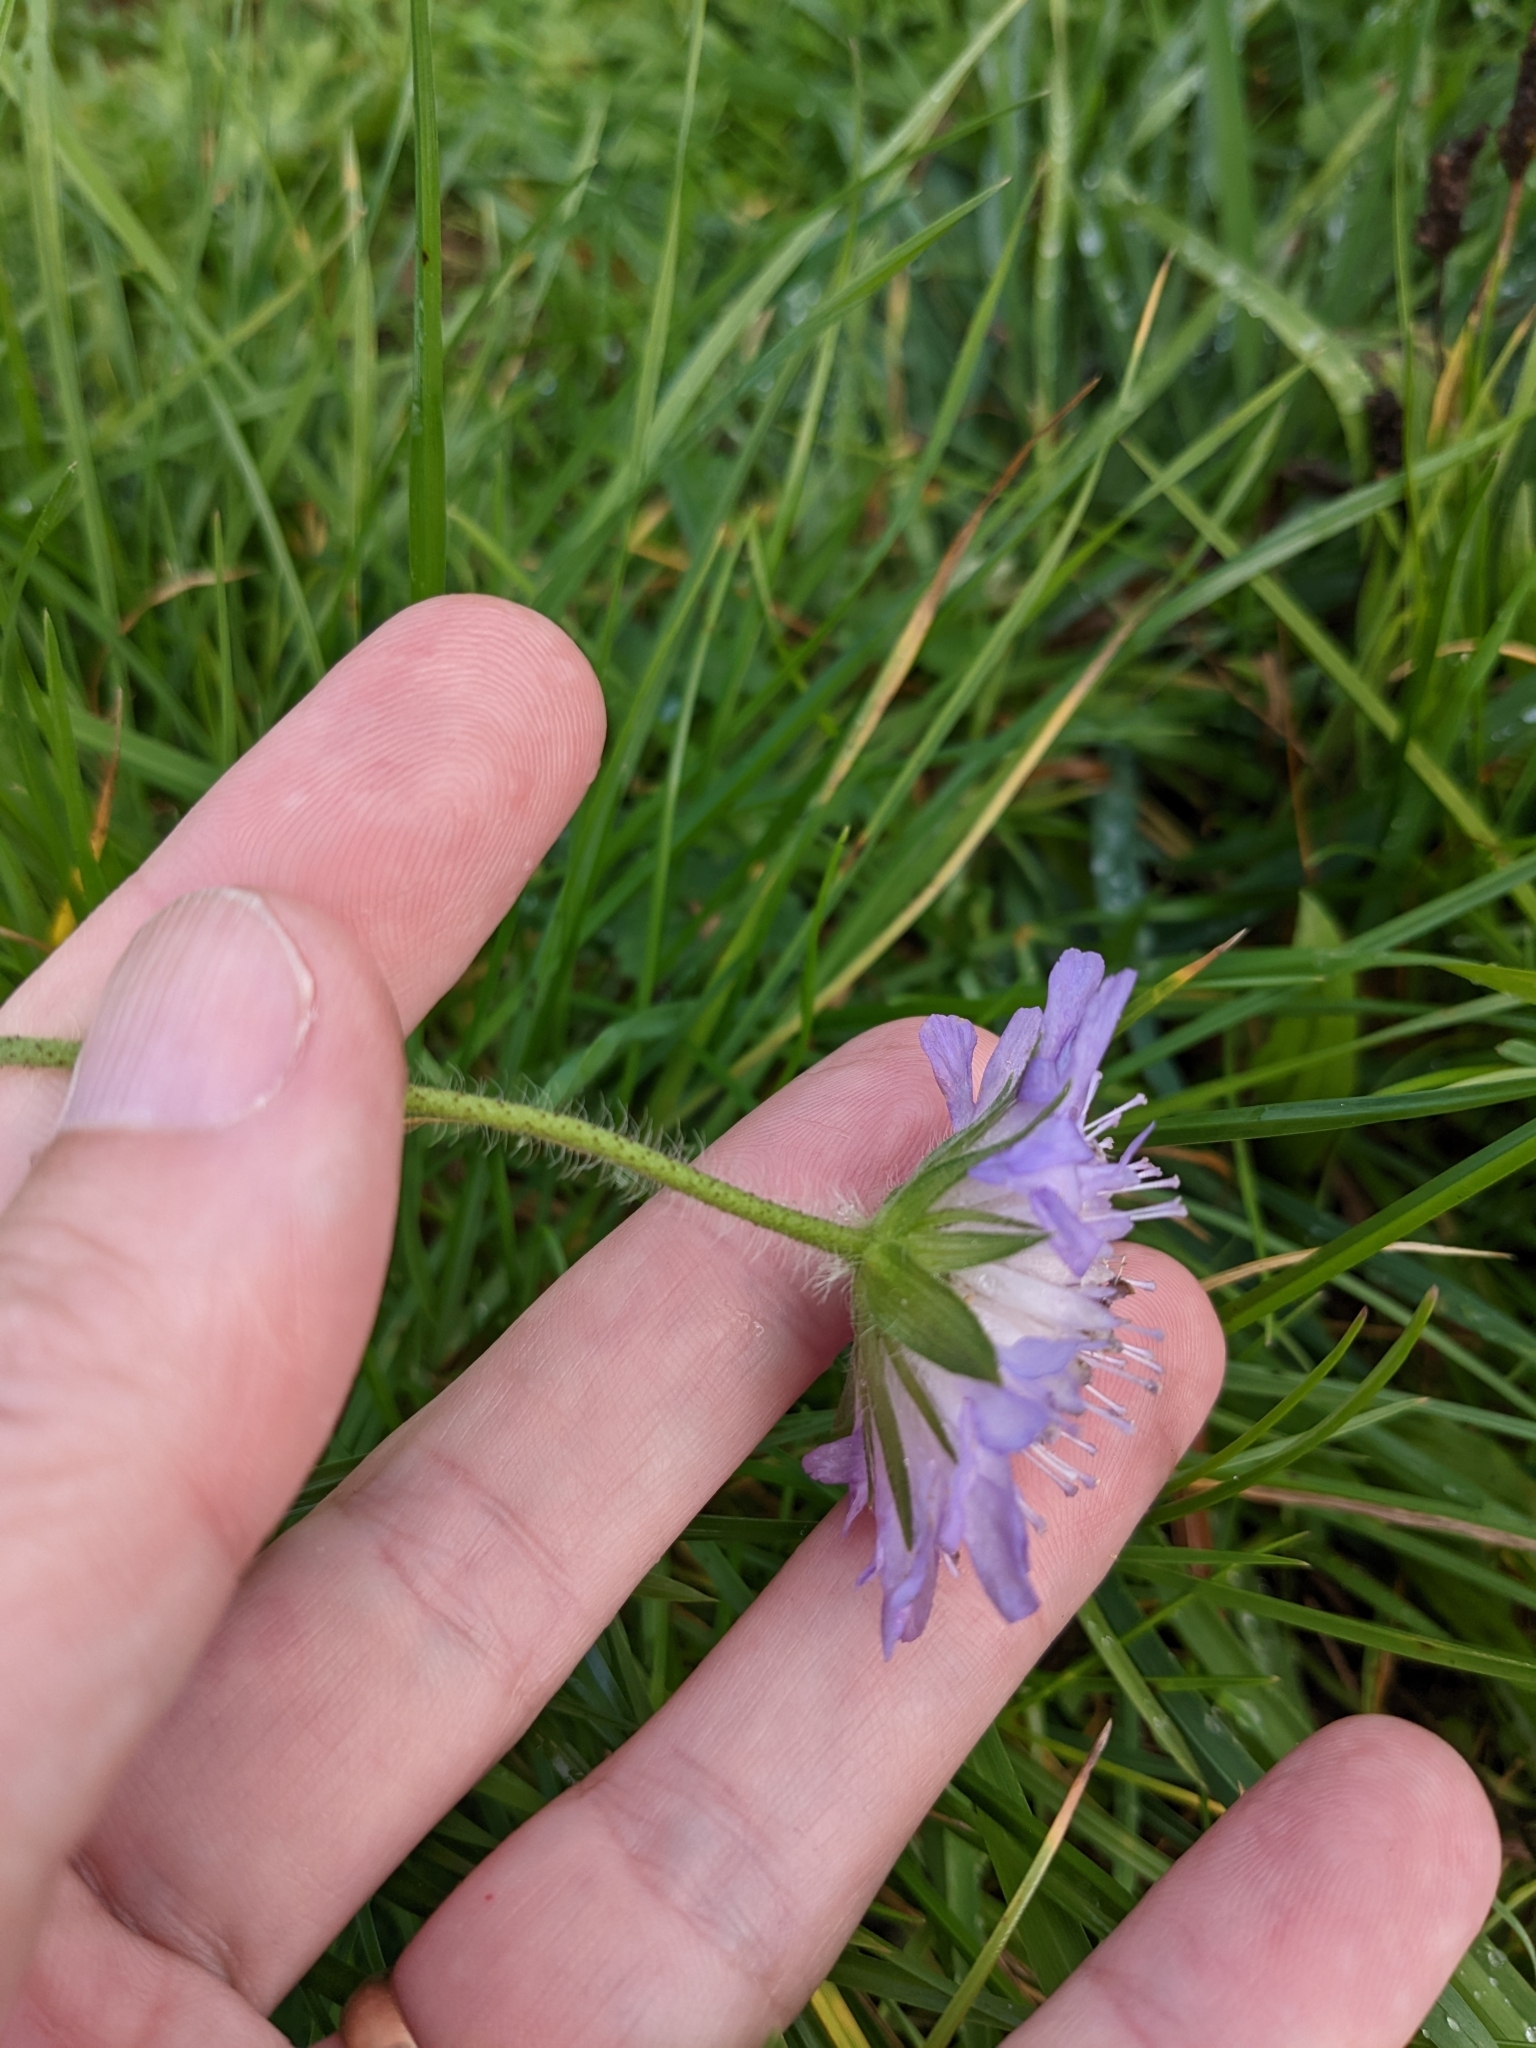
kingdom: Plantae
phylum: Tracheophyta
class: Magnoliopsida
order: Dipsacales
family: Caprifoliaceae
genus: Knautia
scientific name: Knautia arvensis
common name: Field scabiosa
